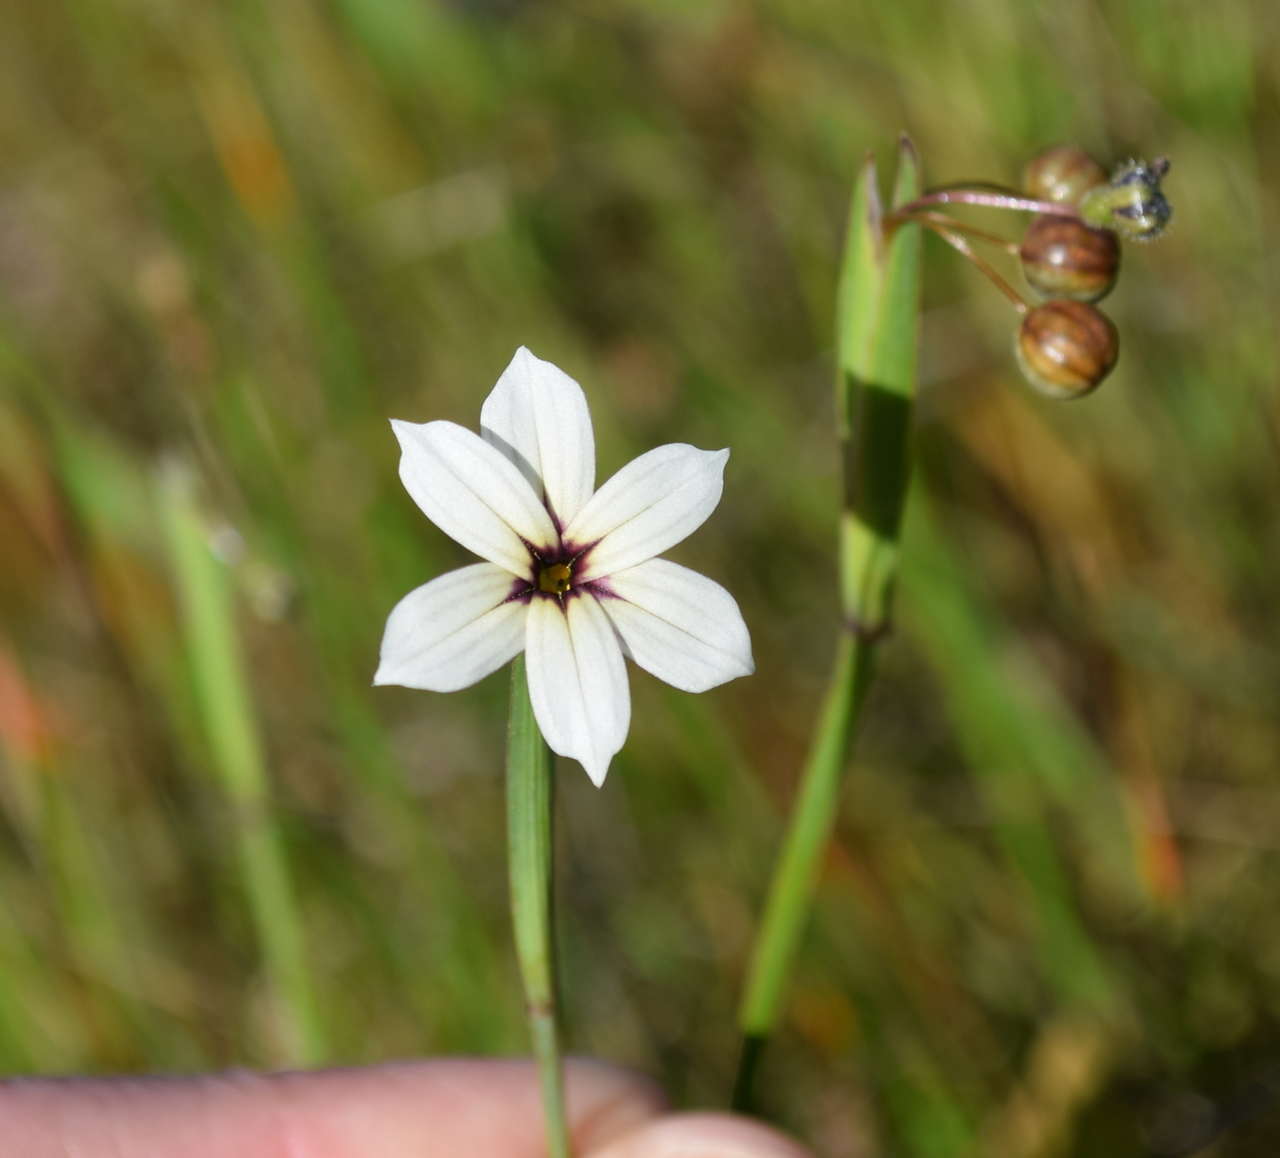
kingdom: Plantae
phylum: Tracheophyta
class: Liliopsida
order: Asparagales
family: Iridaceae
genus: Sisyrinchium
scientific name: Sisyrinchium micranthum
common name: Bermuda pigroot
